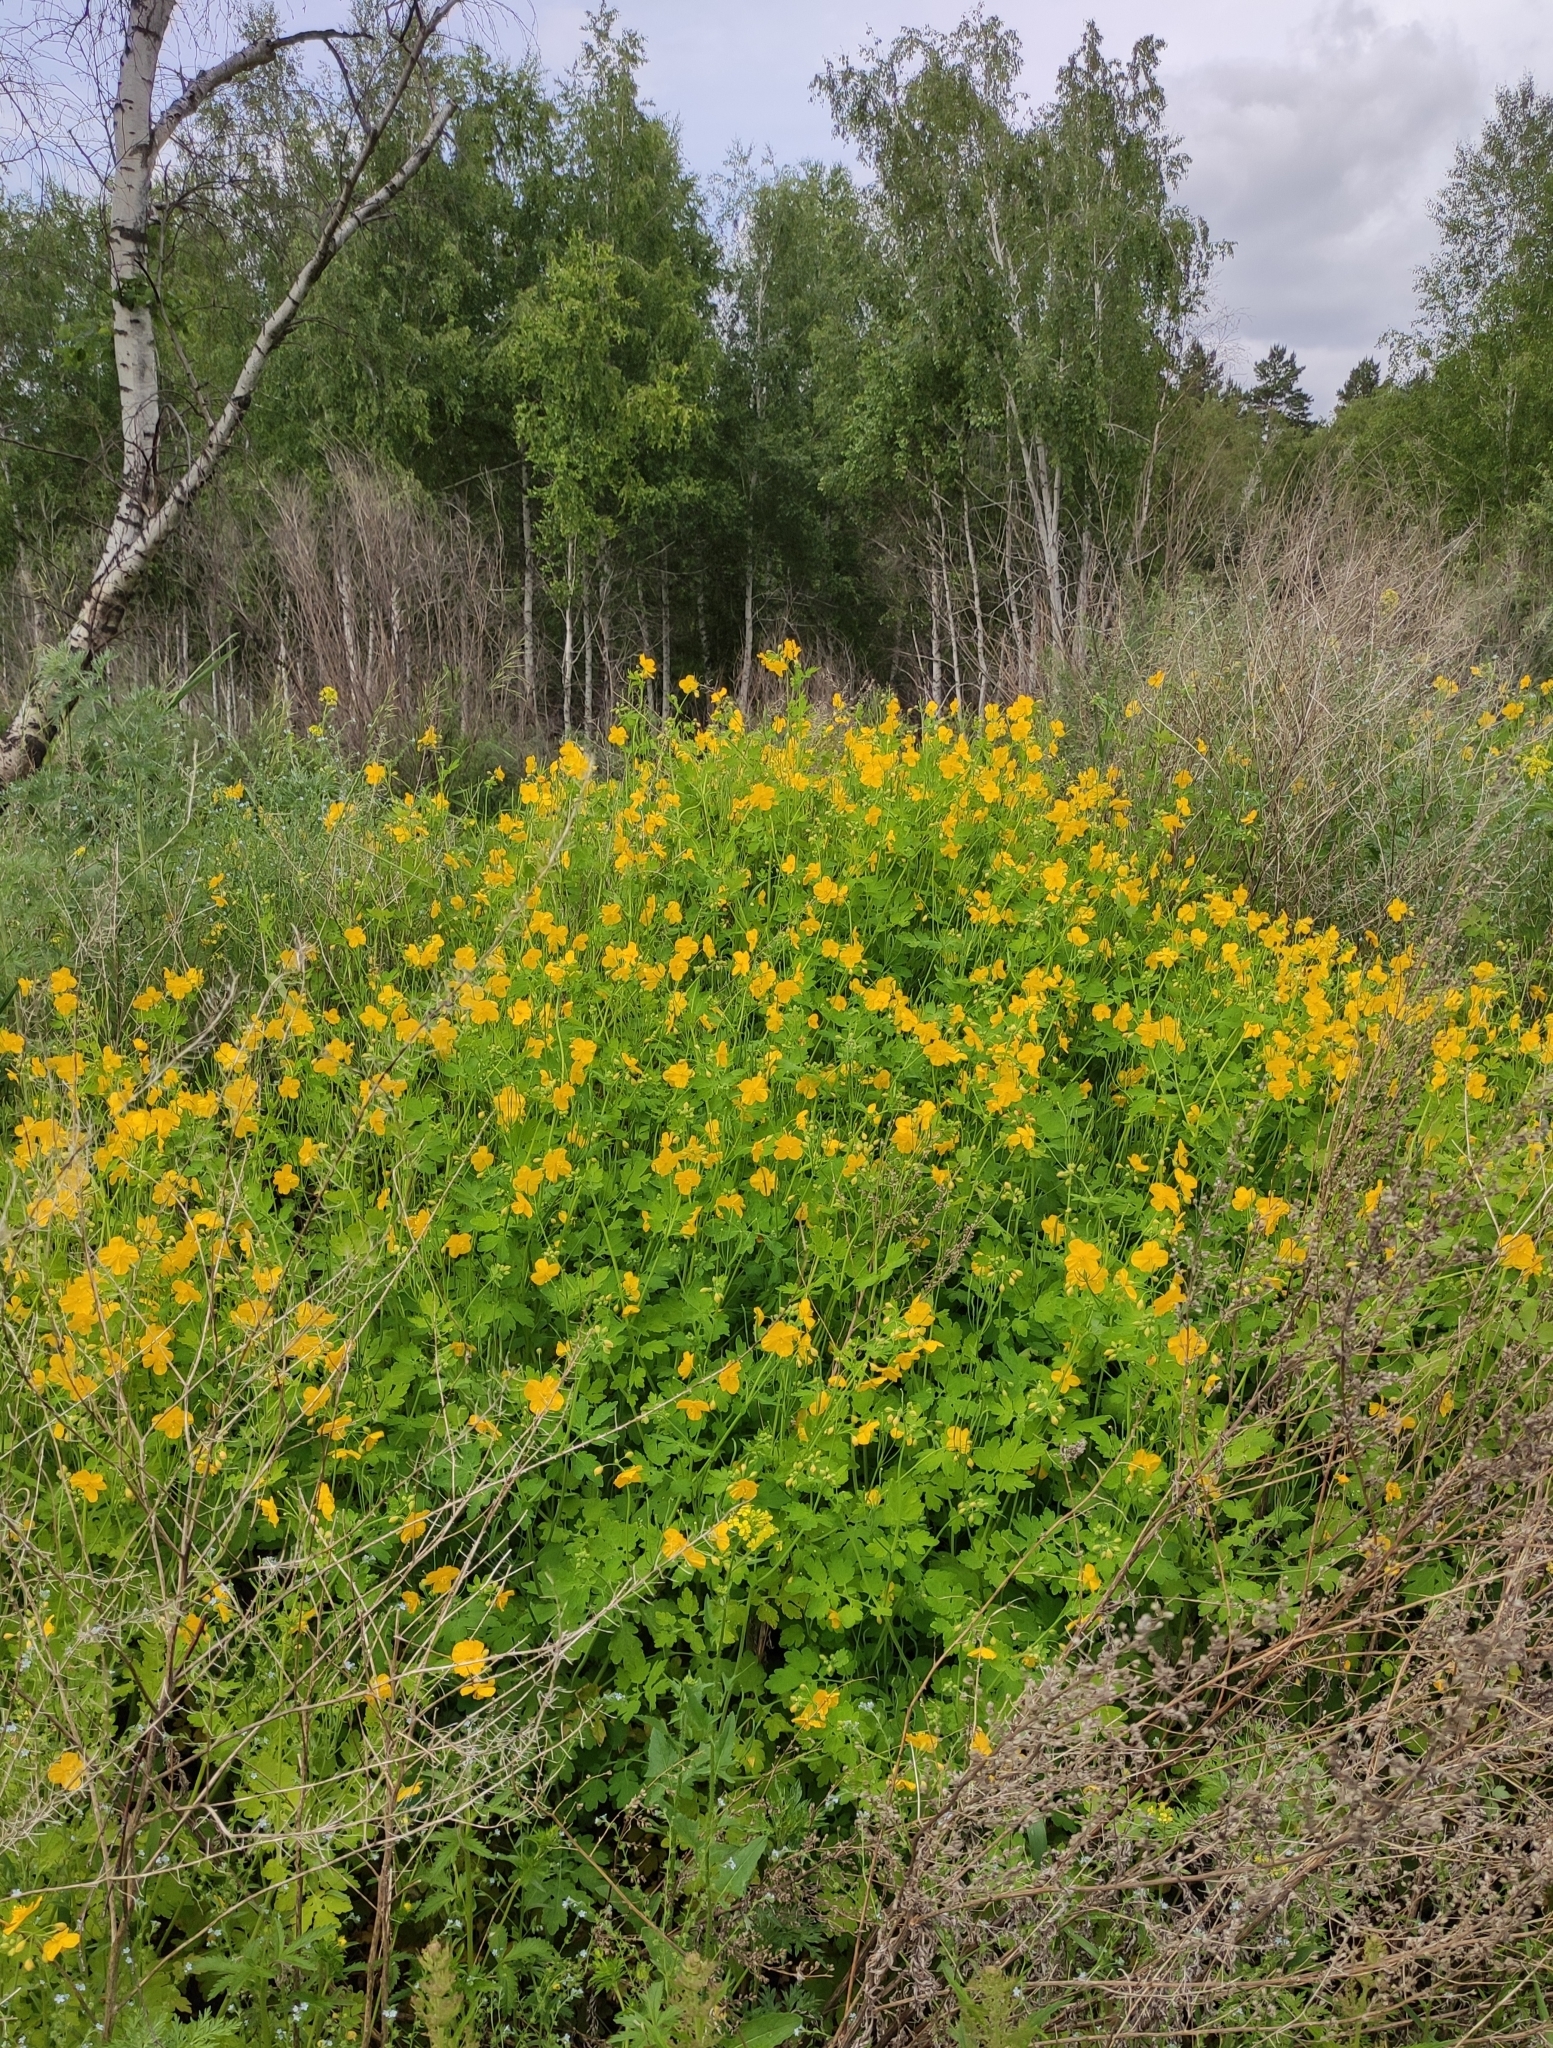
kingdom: Plantae
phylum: Tracheophyta
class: Magnoliopsida
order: Ranunculales
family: Papaveraceae
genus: Chelidonium
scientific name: Chelidonium majus
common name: Greater celandine
